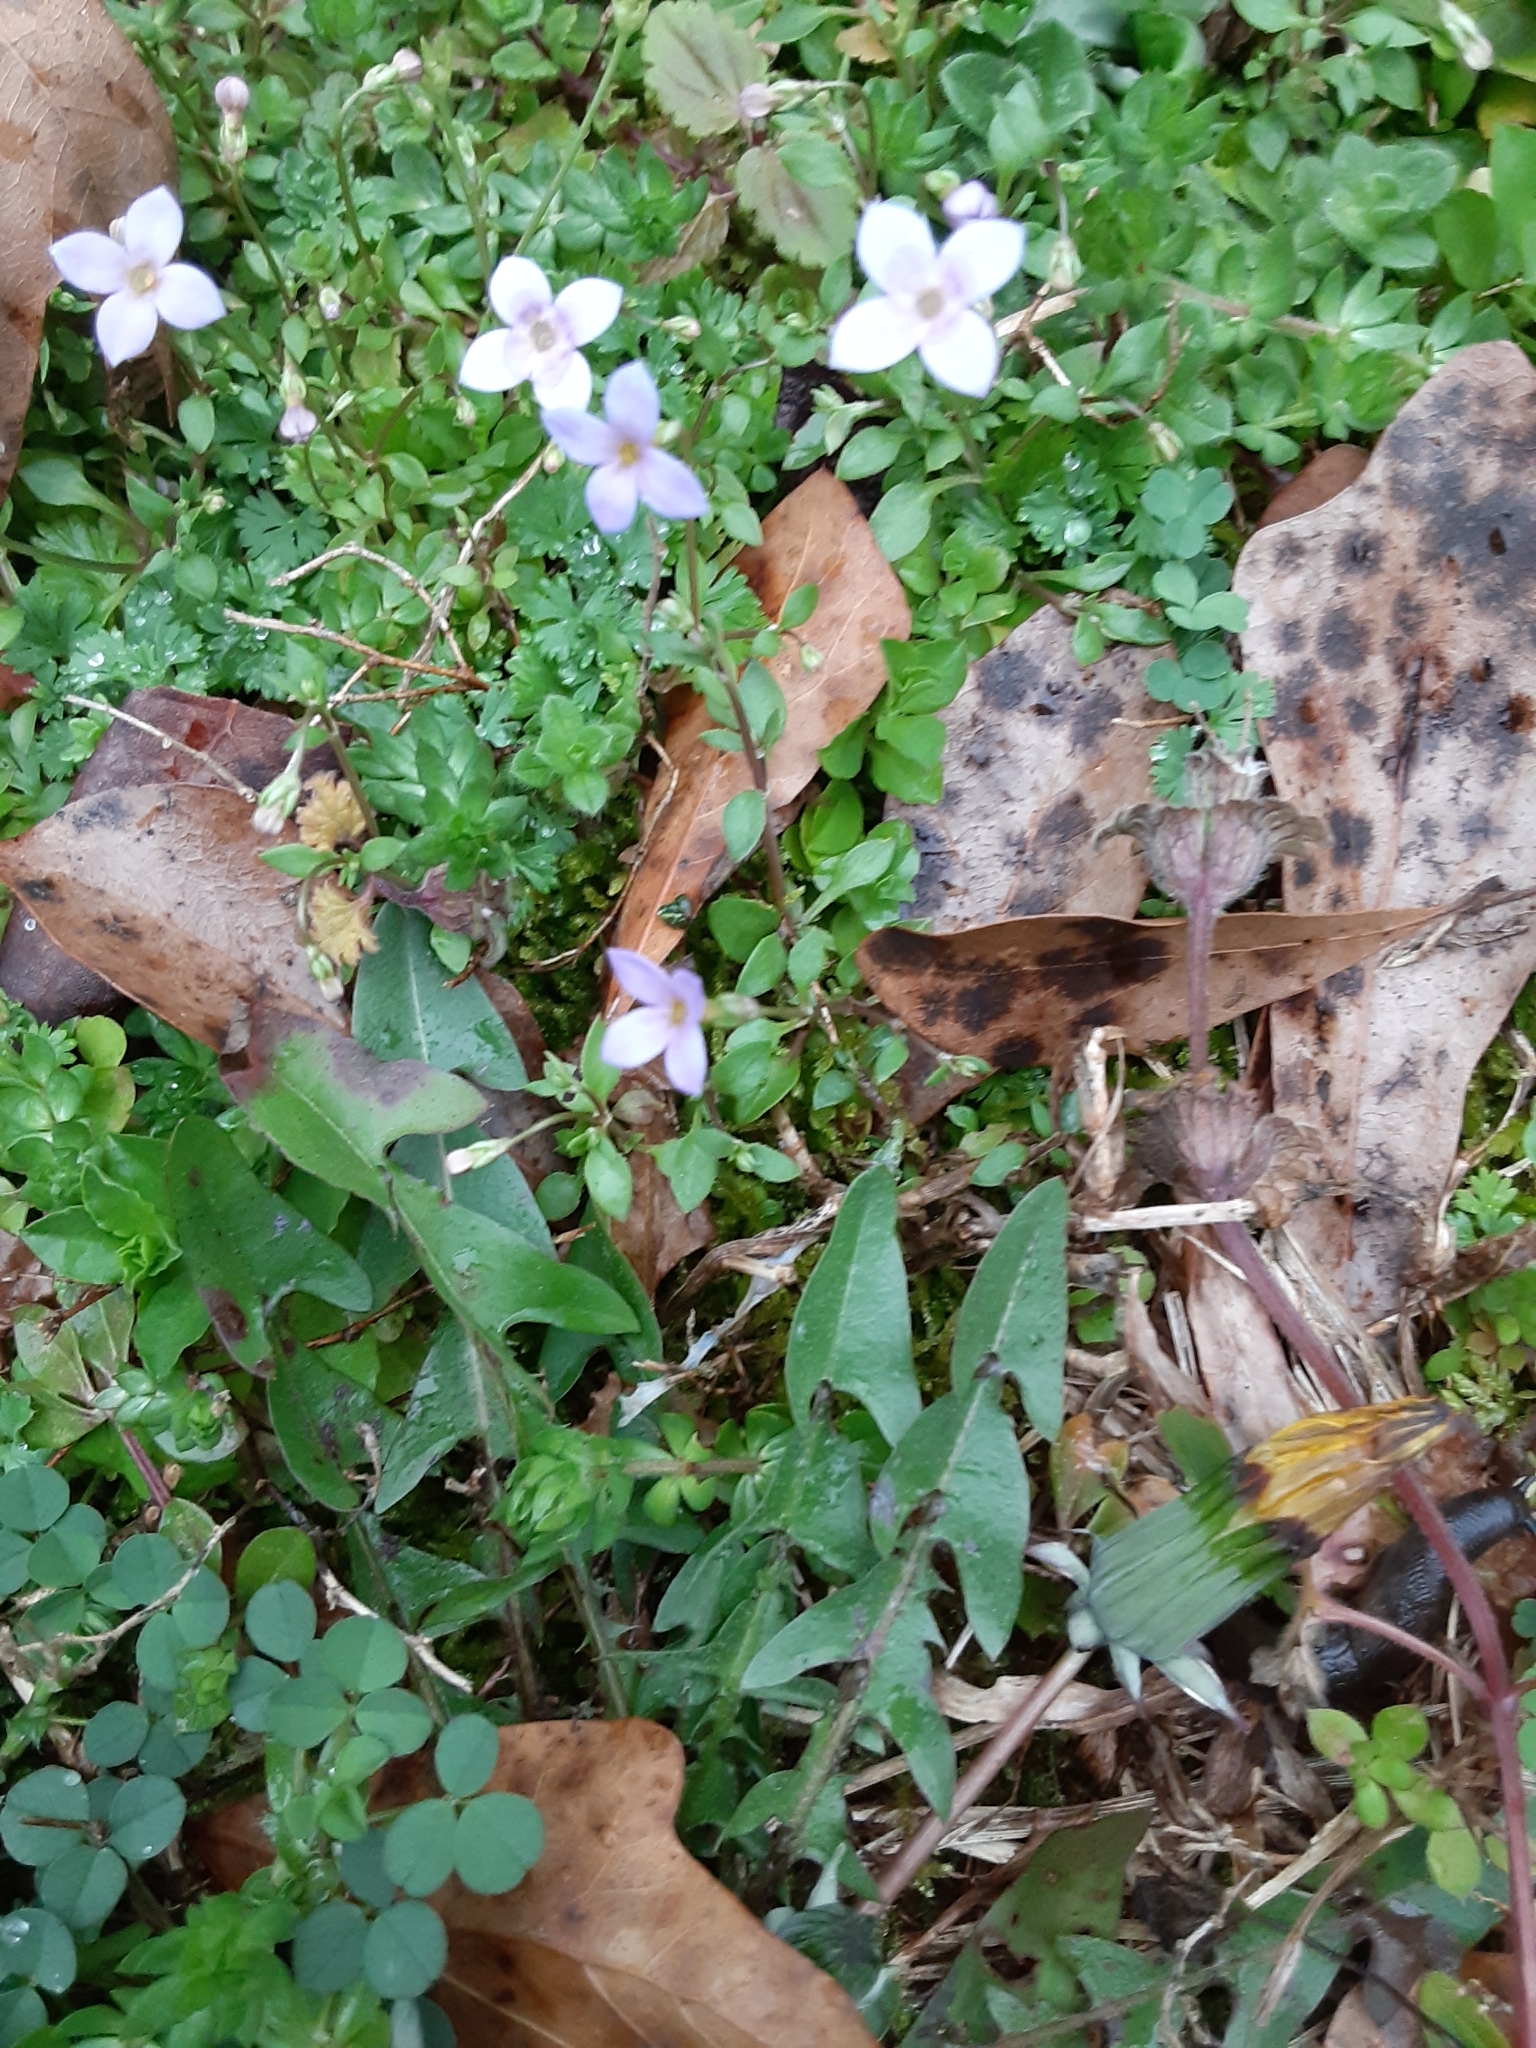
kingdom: Plantae
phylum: Tracheophyta
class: Magnoliopsida
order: Gentianales
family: Rubiaceae
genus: Houstonia
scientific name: Houstonia pusilla
